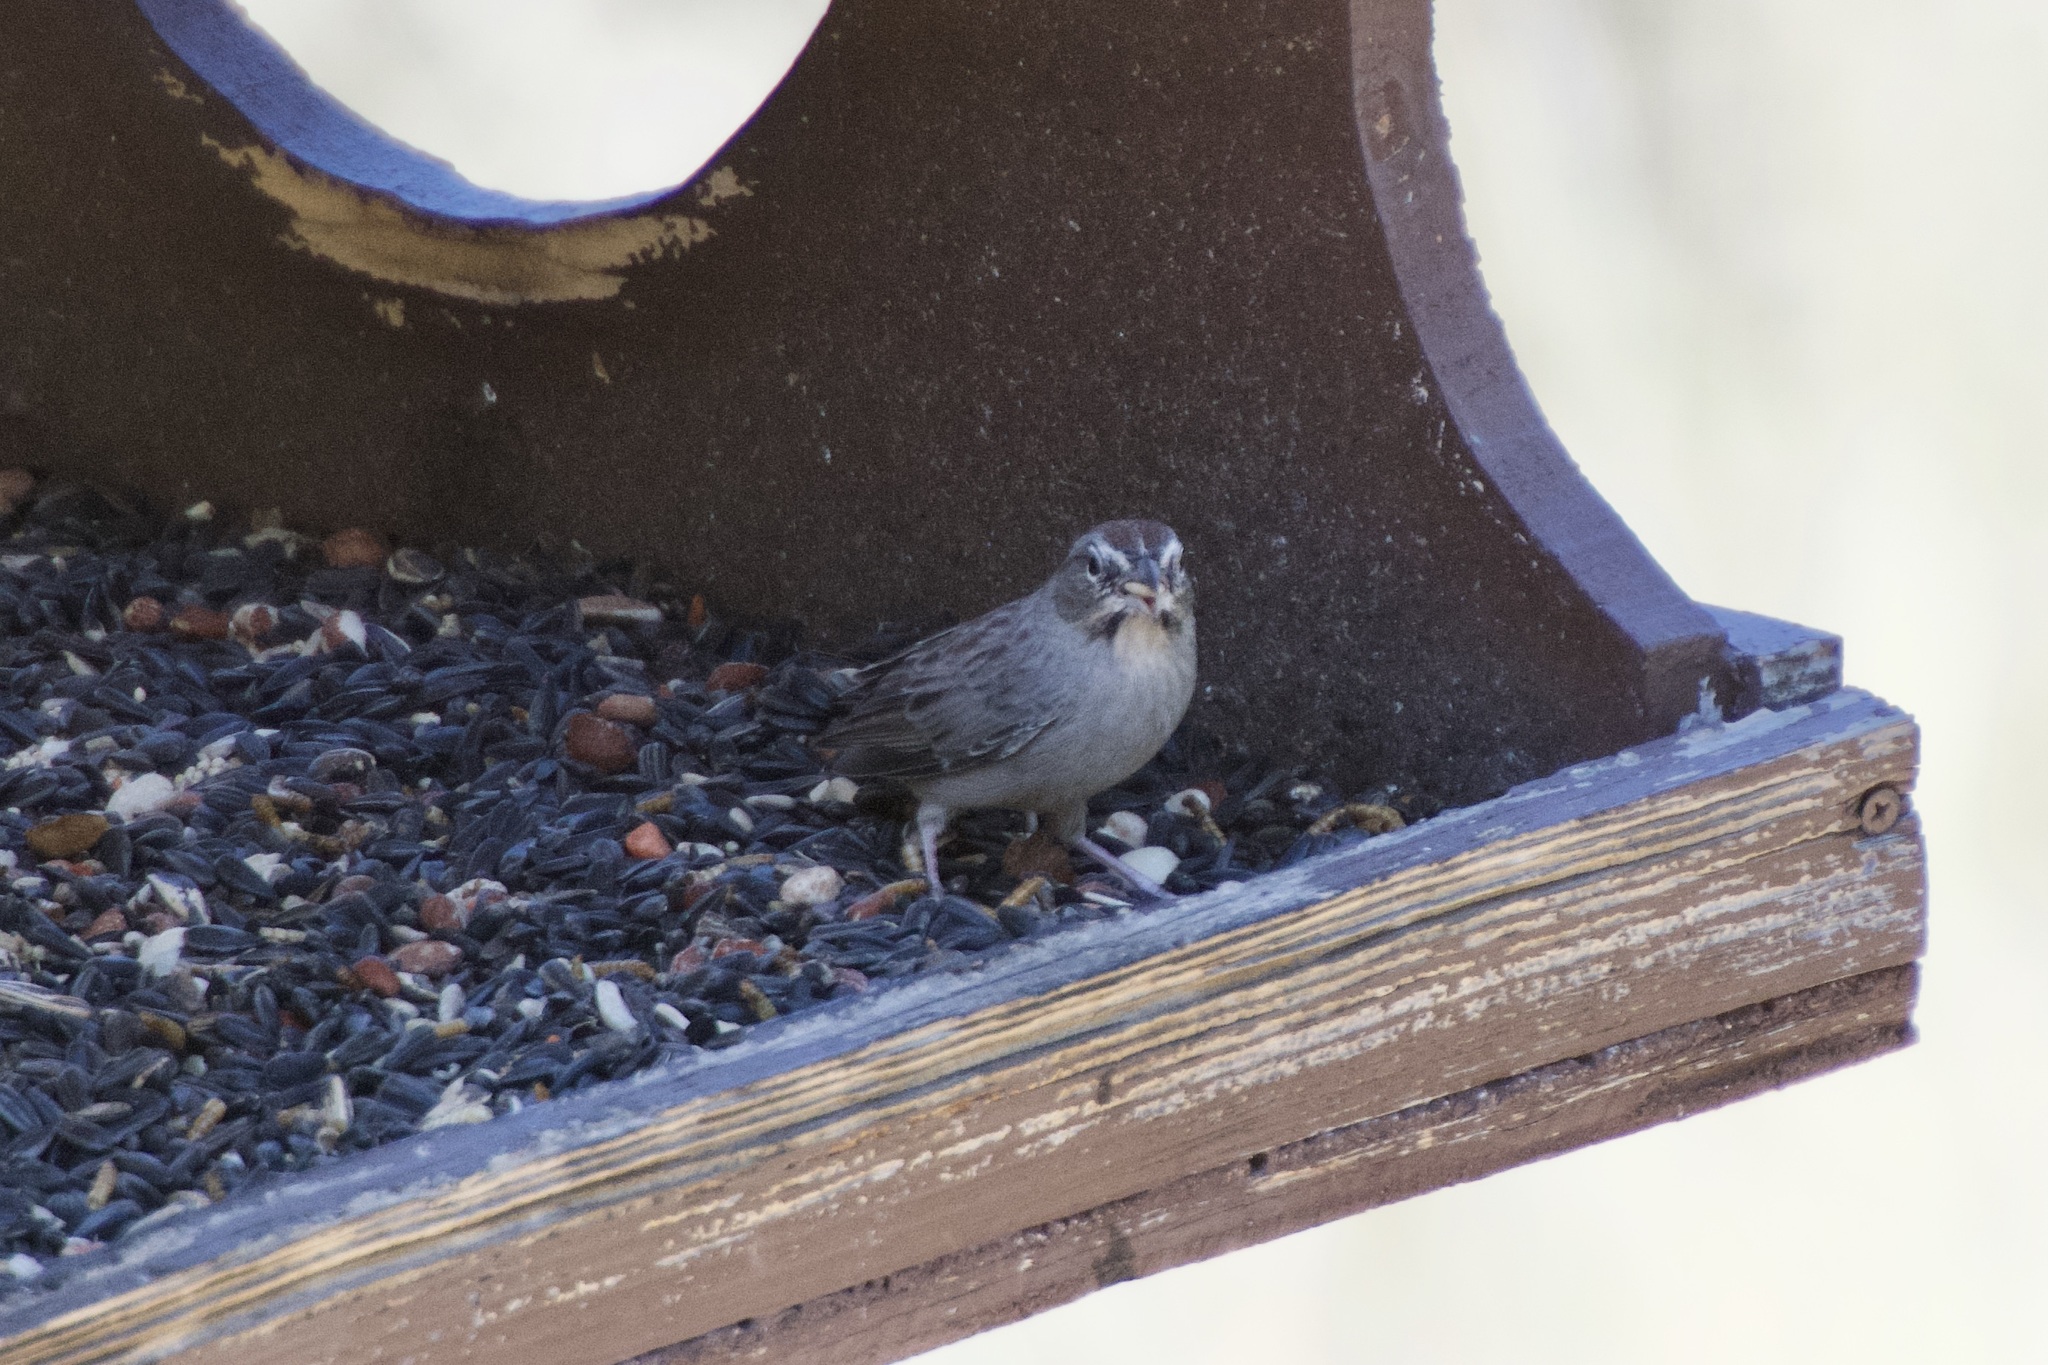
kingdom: Animalia
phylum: Chordata
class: Aves
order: Passeriformes
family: Passerellidae
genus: Aimophila
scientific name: Aimophila ruficeps
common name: Rufous-crowned sparrow
